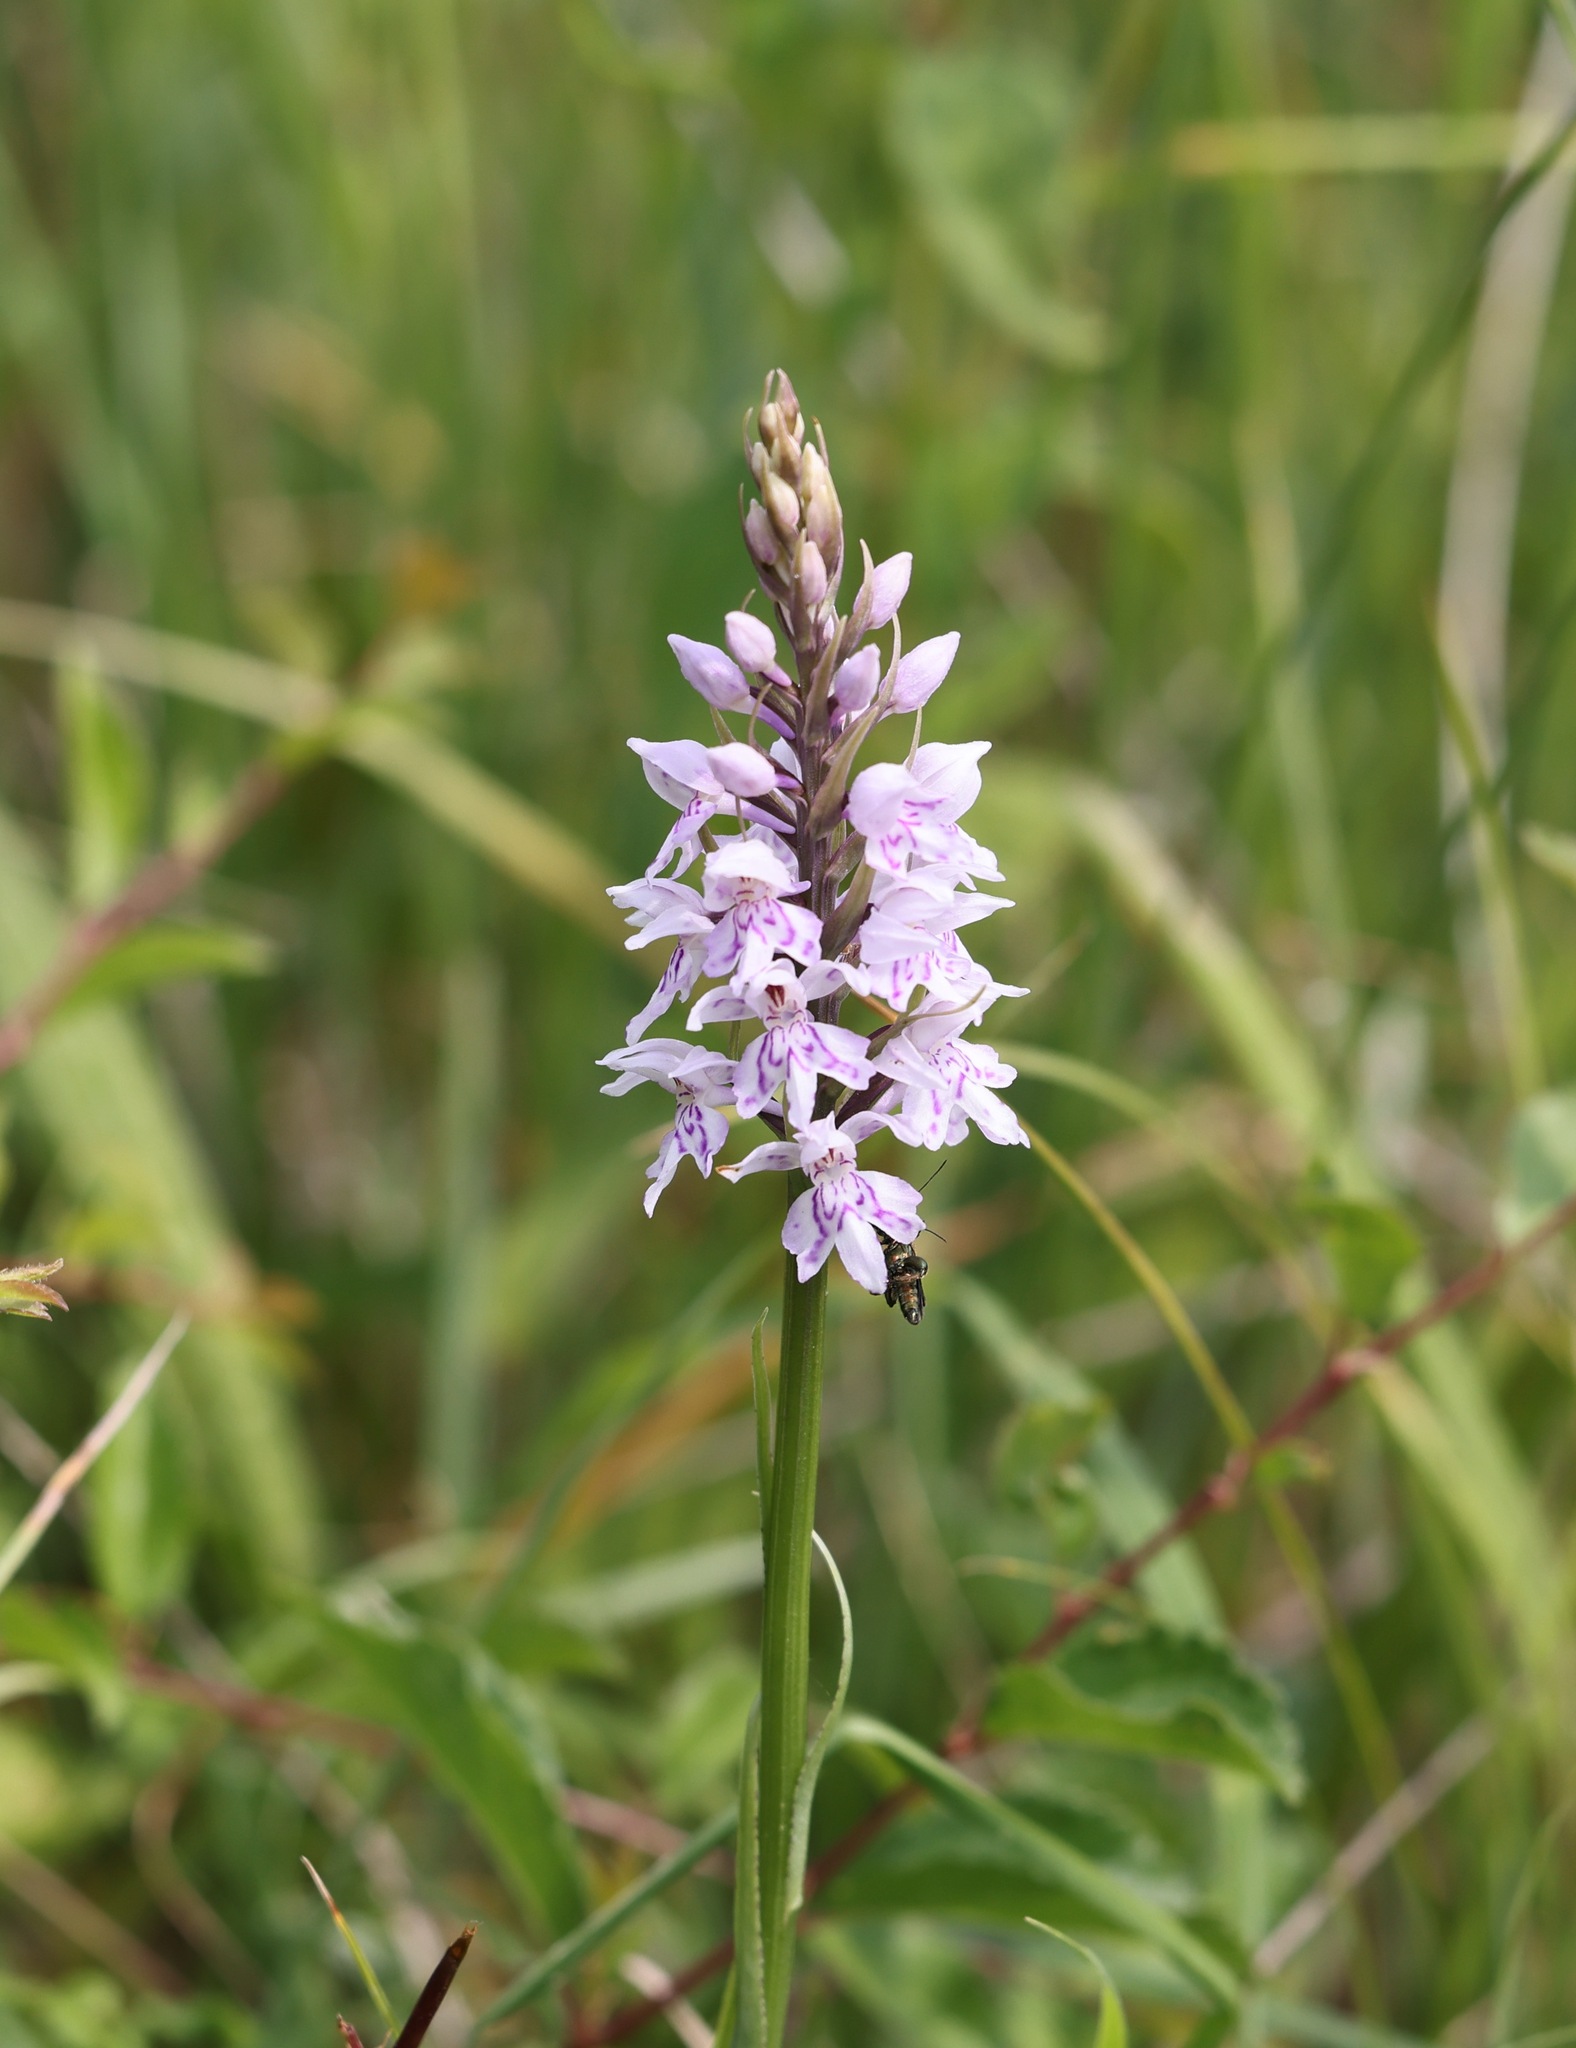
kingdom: Plantae
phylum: Tracheophyta
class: Liliopsida
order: Asparagales
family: Orchidaceae
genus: Dactylorhiza
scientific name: Dactylorhiza maculata
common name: Heath spotted-orchid
